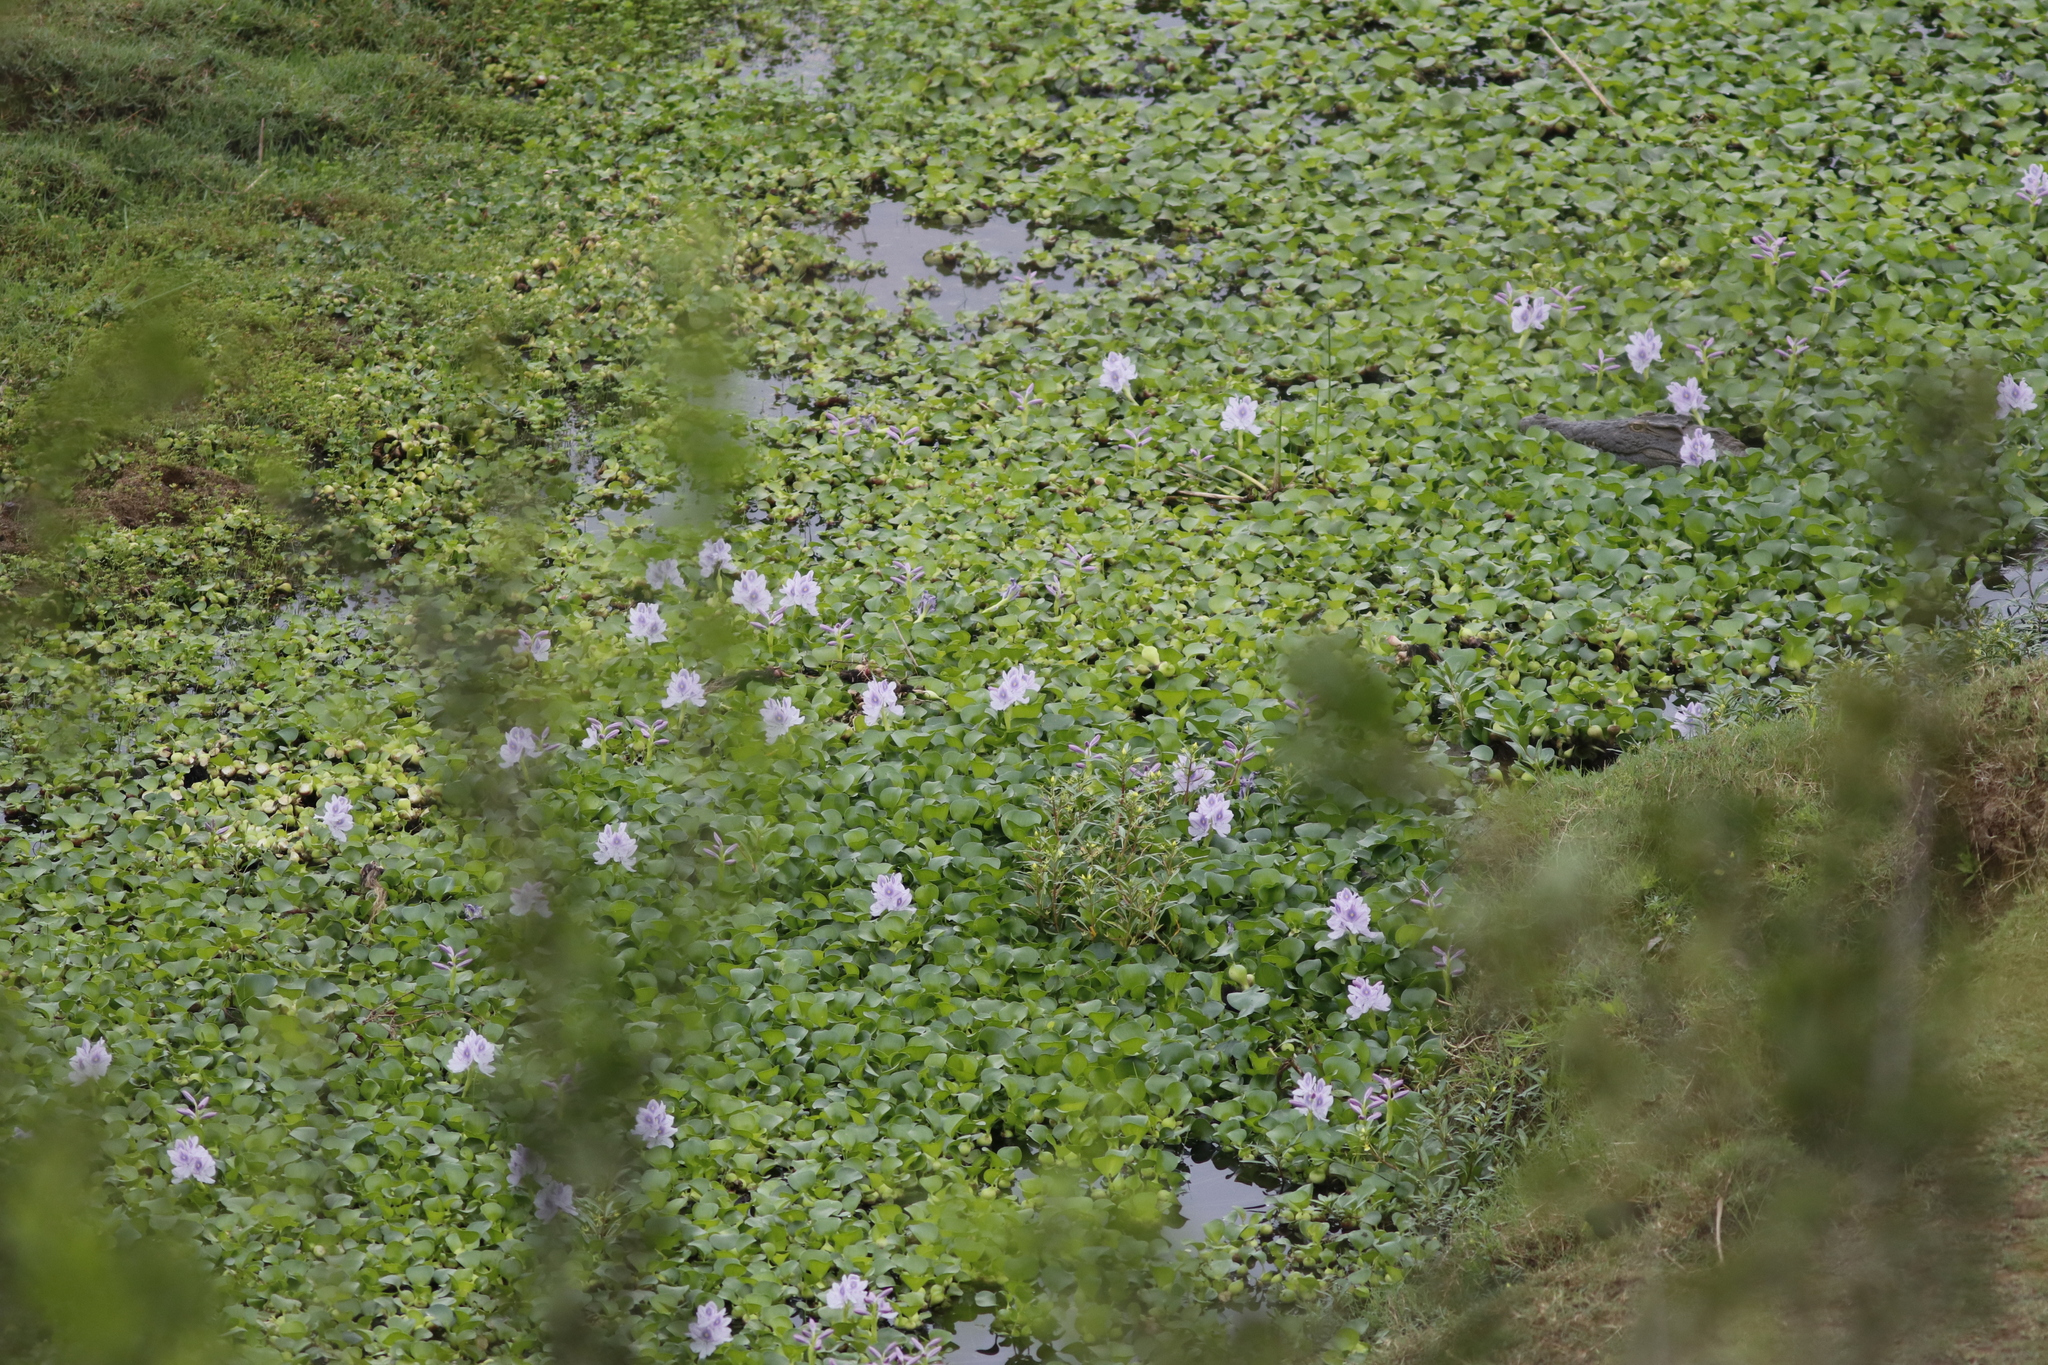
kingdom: Plantae
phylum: Tracheophyta
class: Liliopsida
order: Commelinales
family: Pontederiaceae
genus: Pontederia
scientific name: Pontederia crassipes
